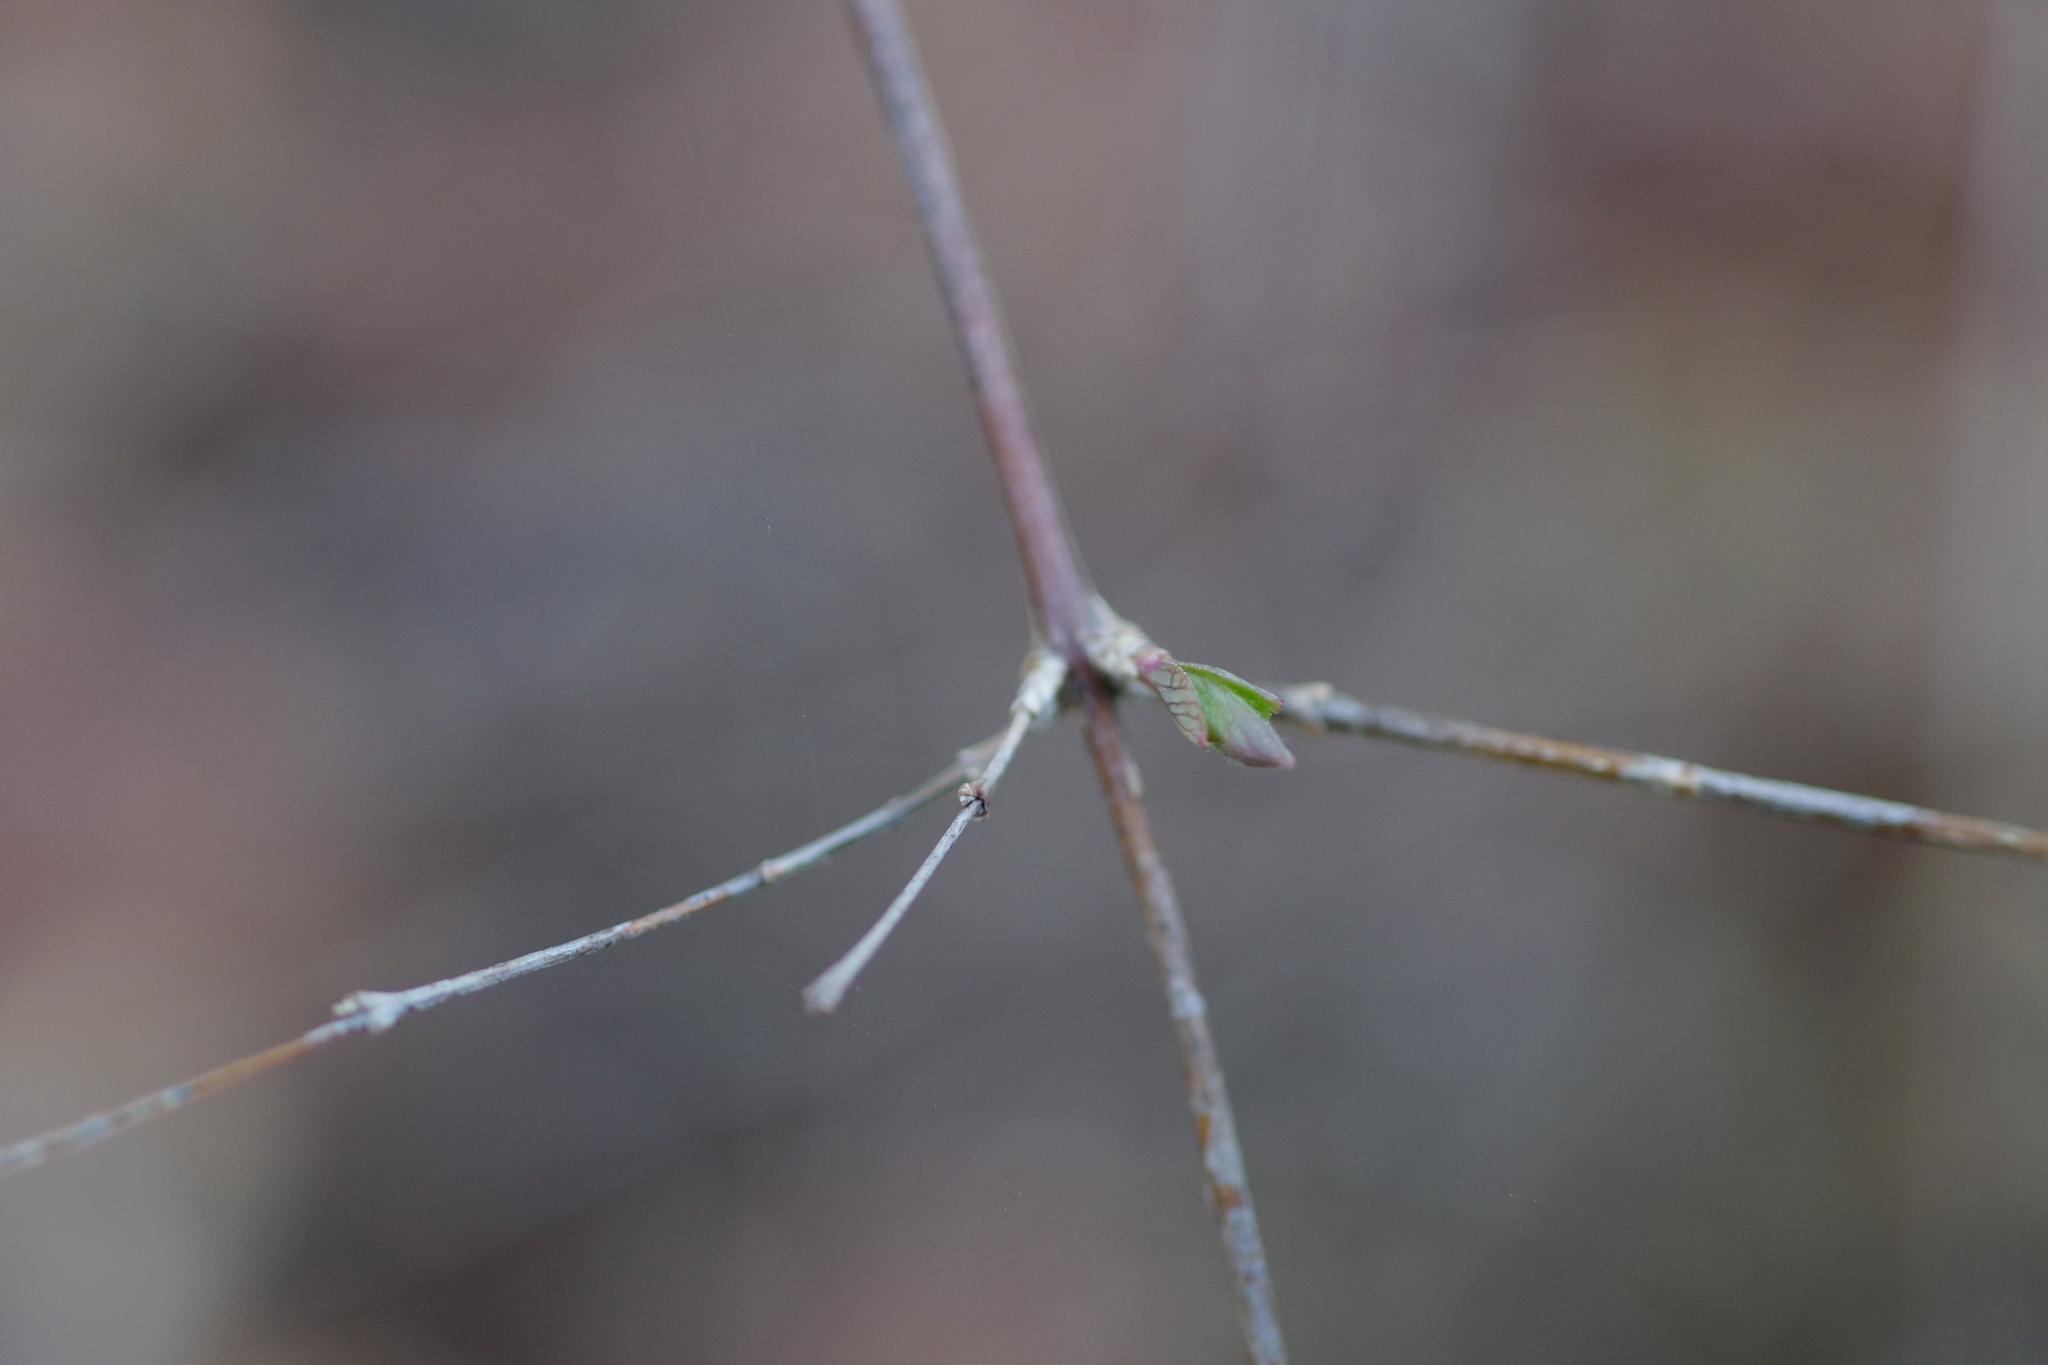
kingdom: Plantae
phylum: Tracheophyta
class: Magnoliopsida
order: Dipsacales
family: Caprifoliaceae
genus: Symphoricarpos
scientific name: Symphoricarpos albus
